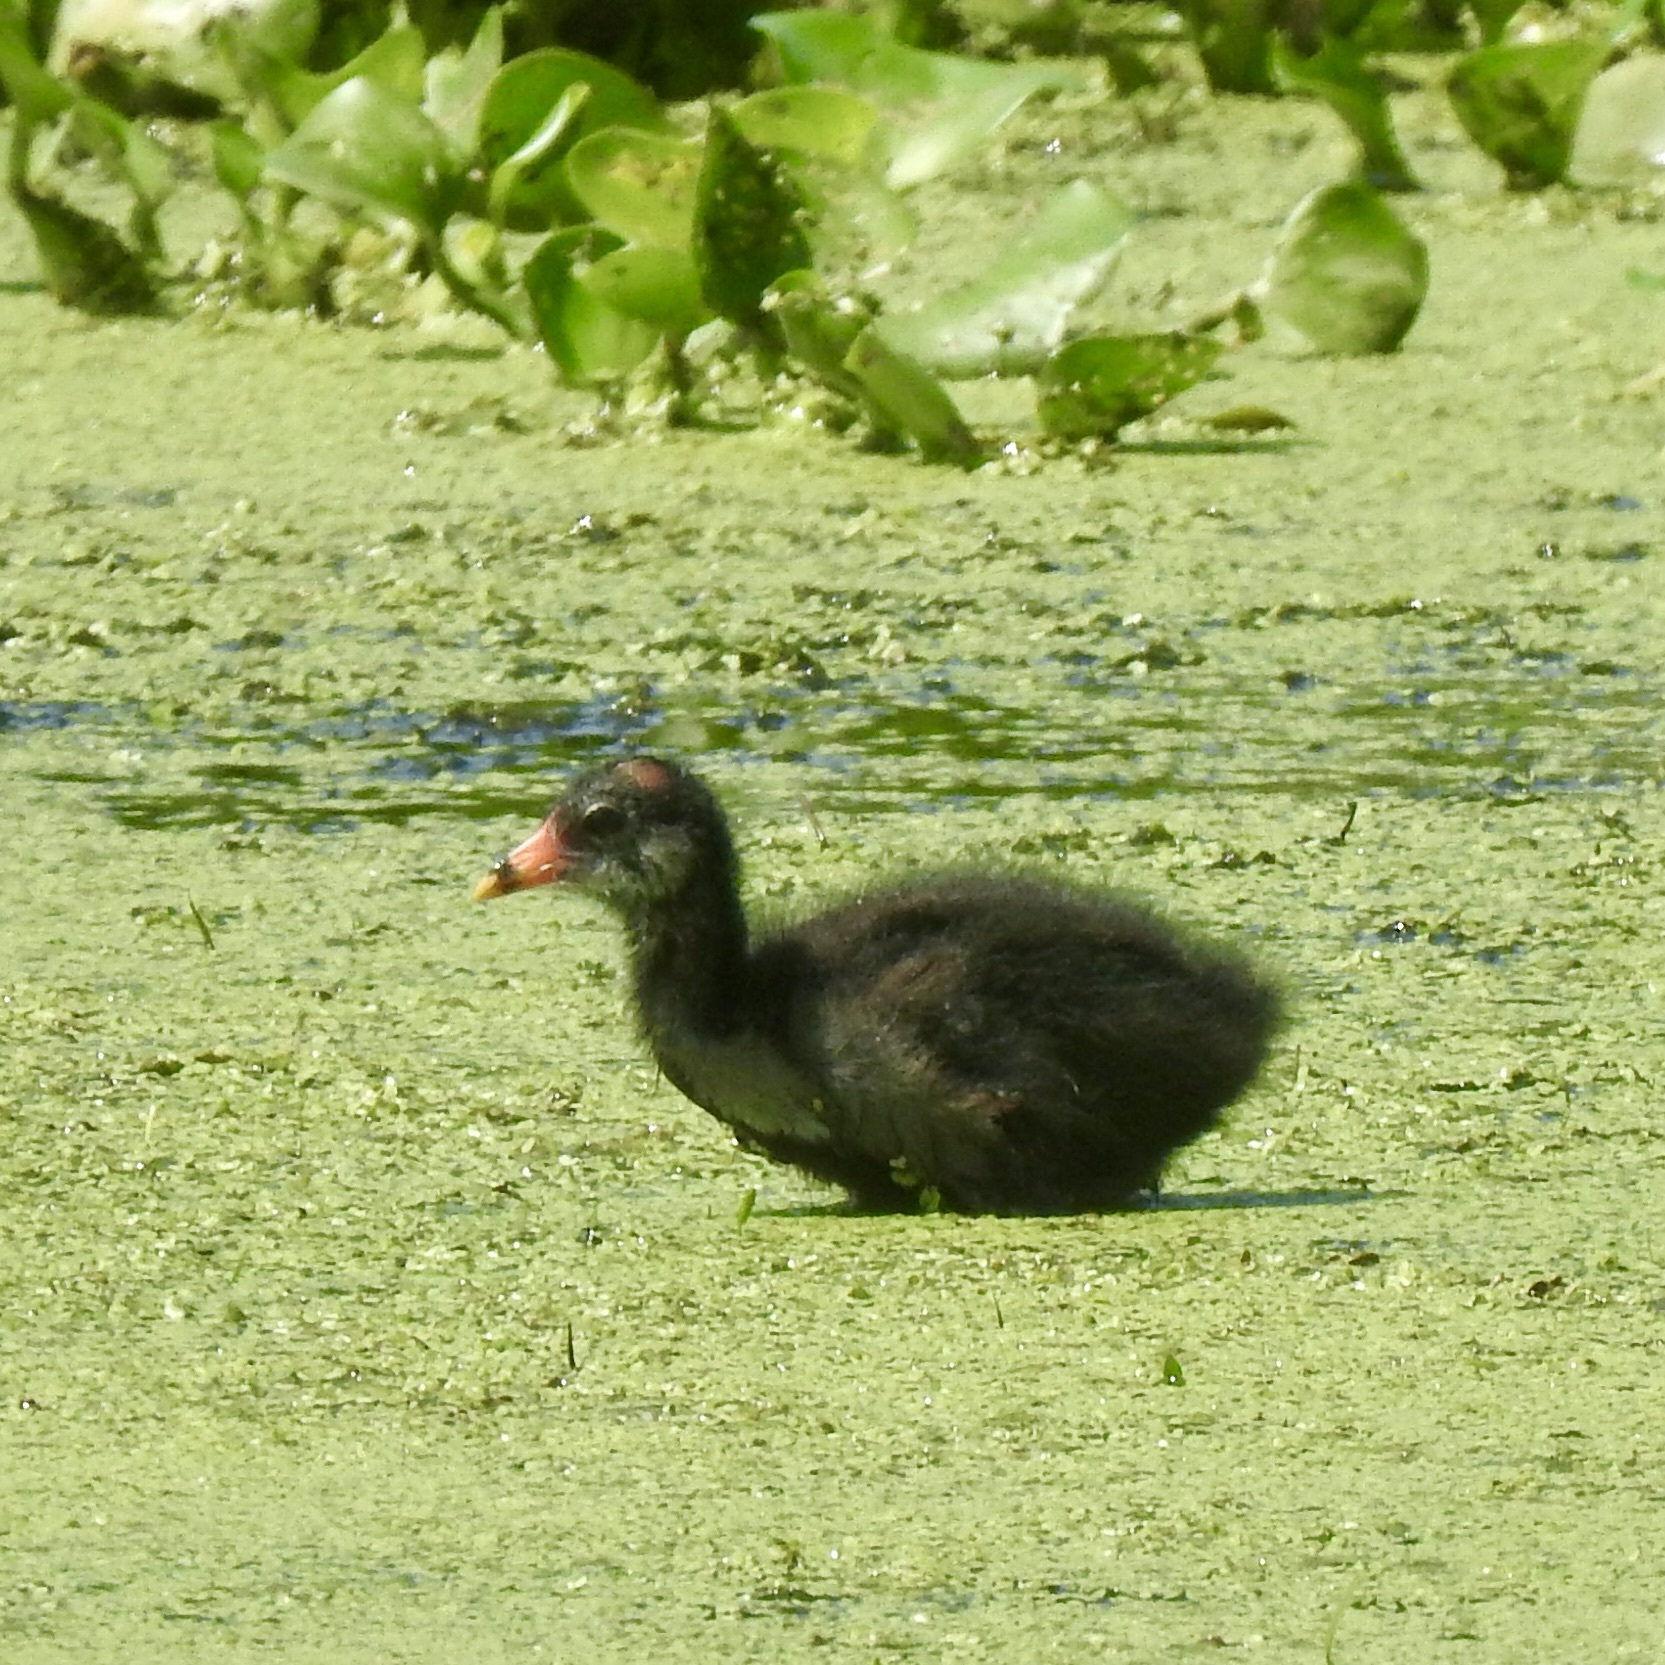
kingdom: Animalia
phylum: Chordata
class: Aves
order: Gruiformes
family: Rallidae
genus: Gallinula
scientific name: Gallinula chloropus
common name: Common moorhen
